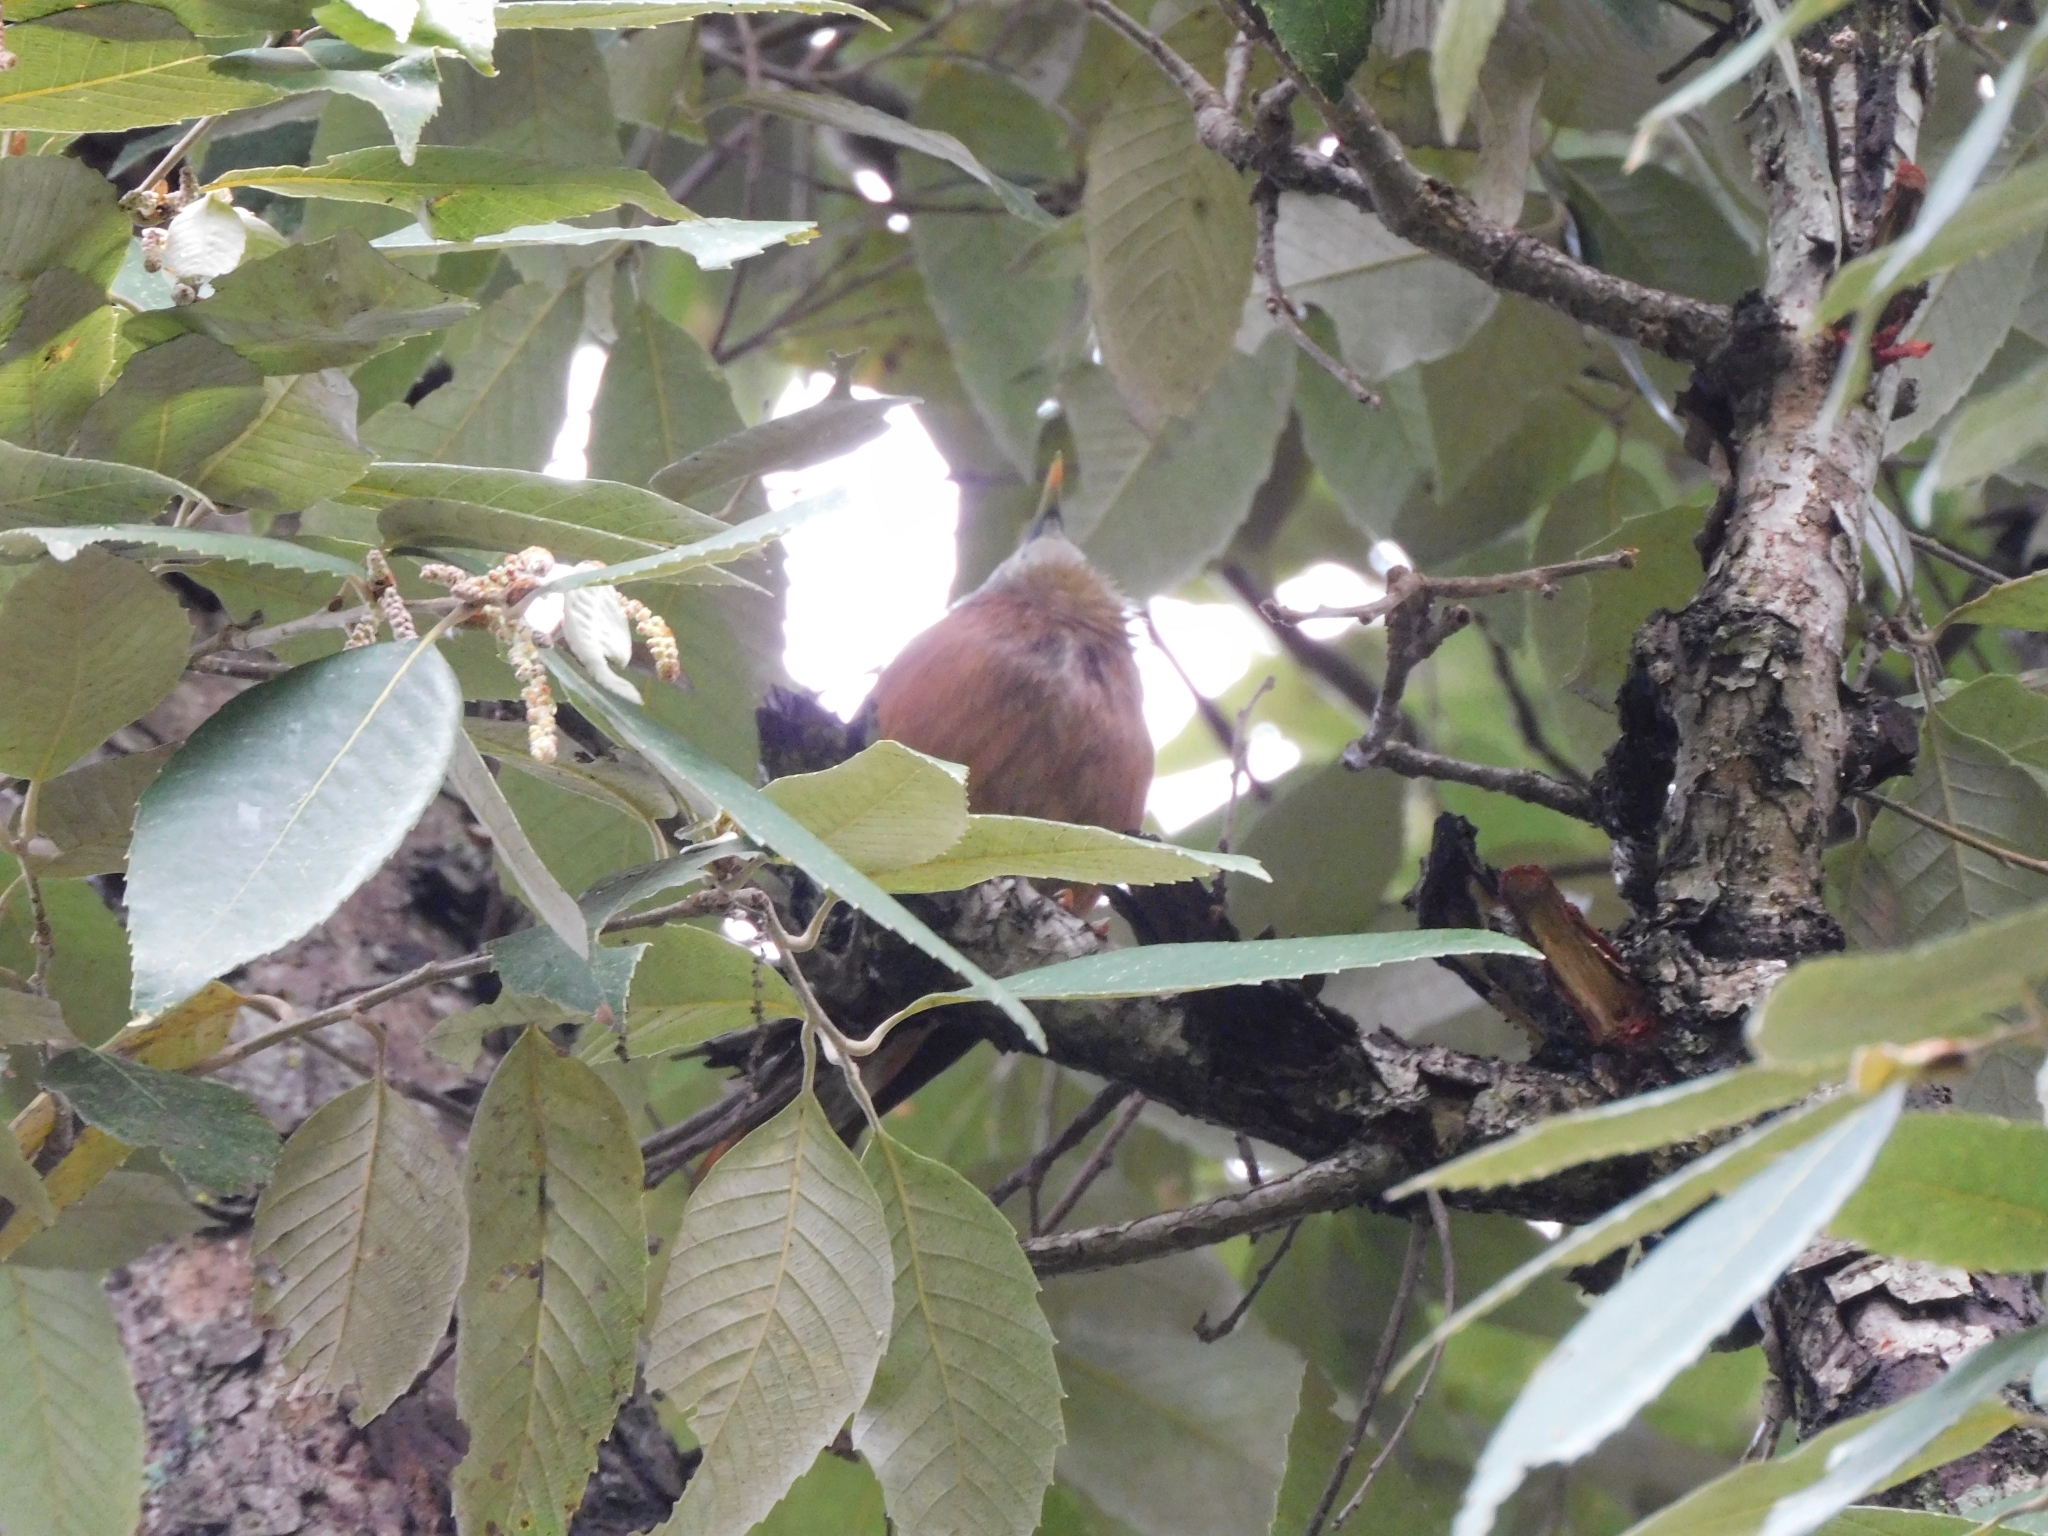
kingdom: Animalia
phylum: Chordata
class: Aves
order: Passeriformes
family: Sturnidae
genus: Sturnia
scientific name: Sturnia malabarica
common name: Chestnut-tailed starling
